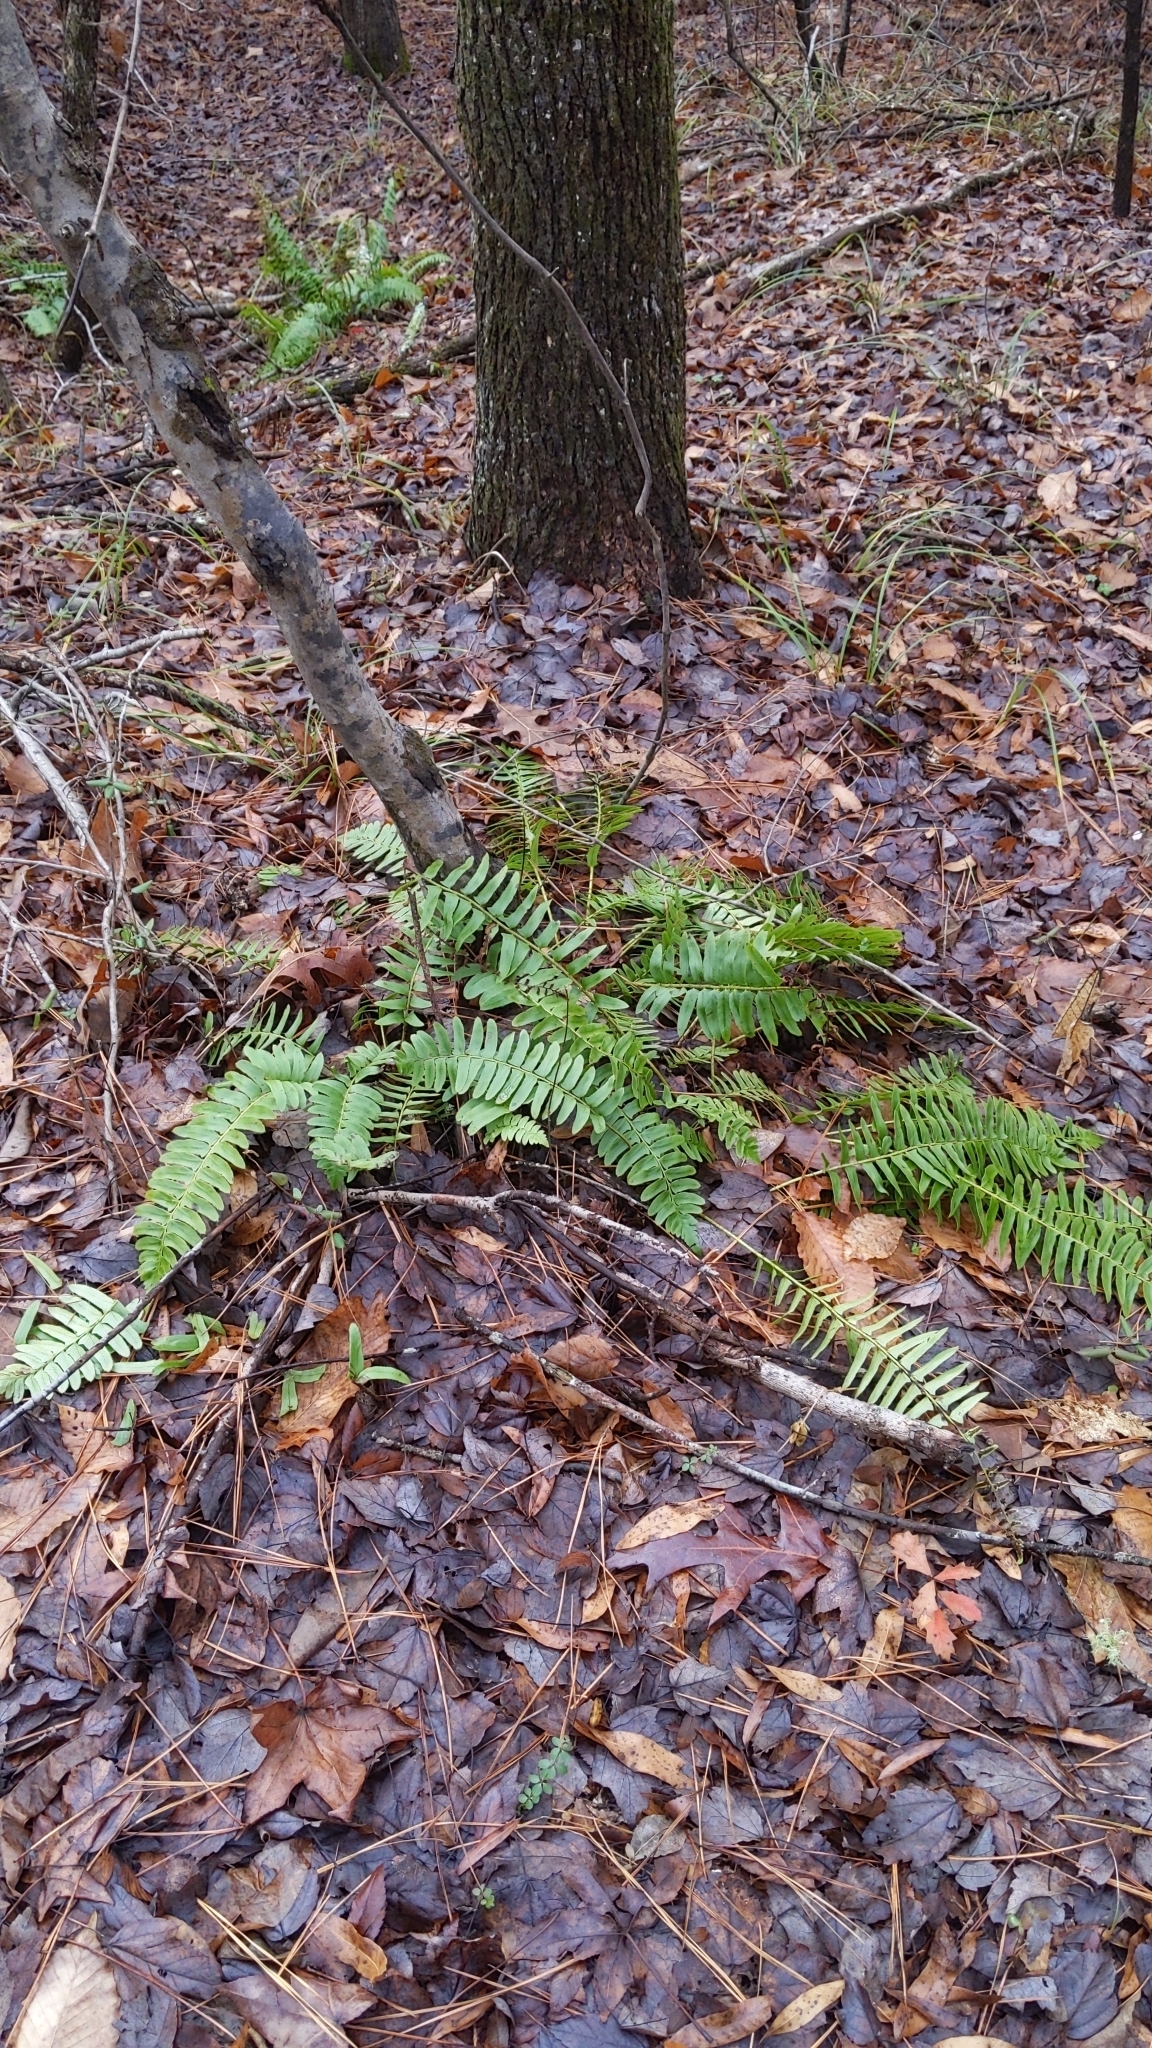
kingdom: Plantae
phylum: Tracheophyta
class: Polypodiopsida
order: Polypodiales
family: Dryopteridaceae
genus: Polystichum
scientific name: Polystichum acrostichoides
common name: Christmas fern
